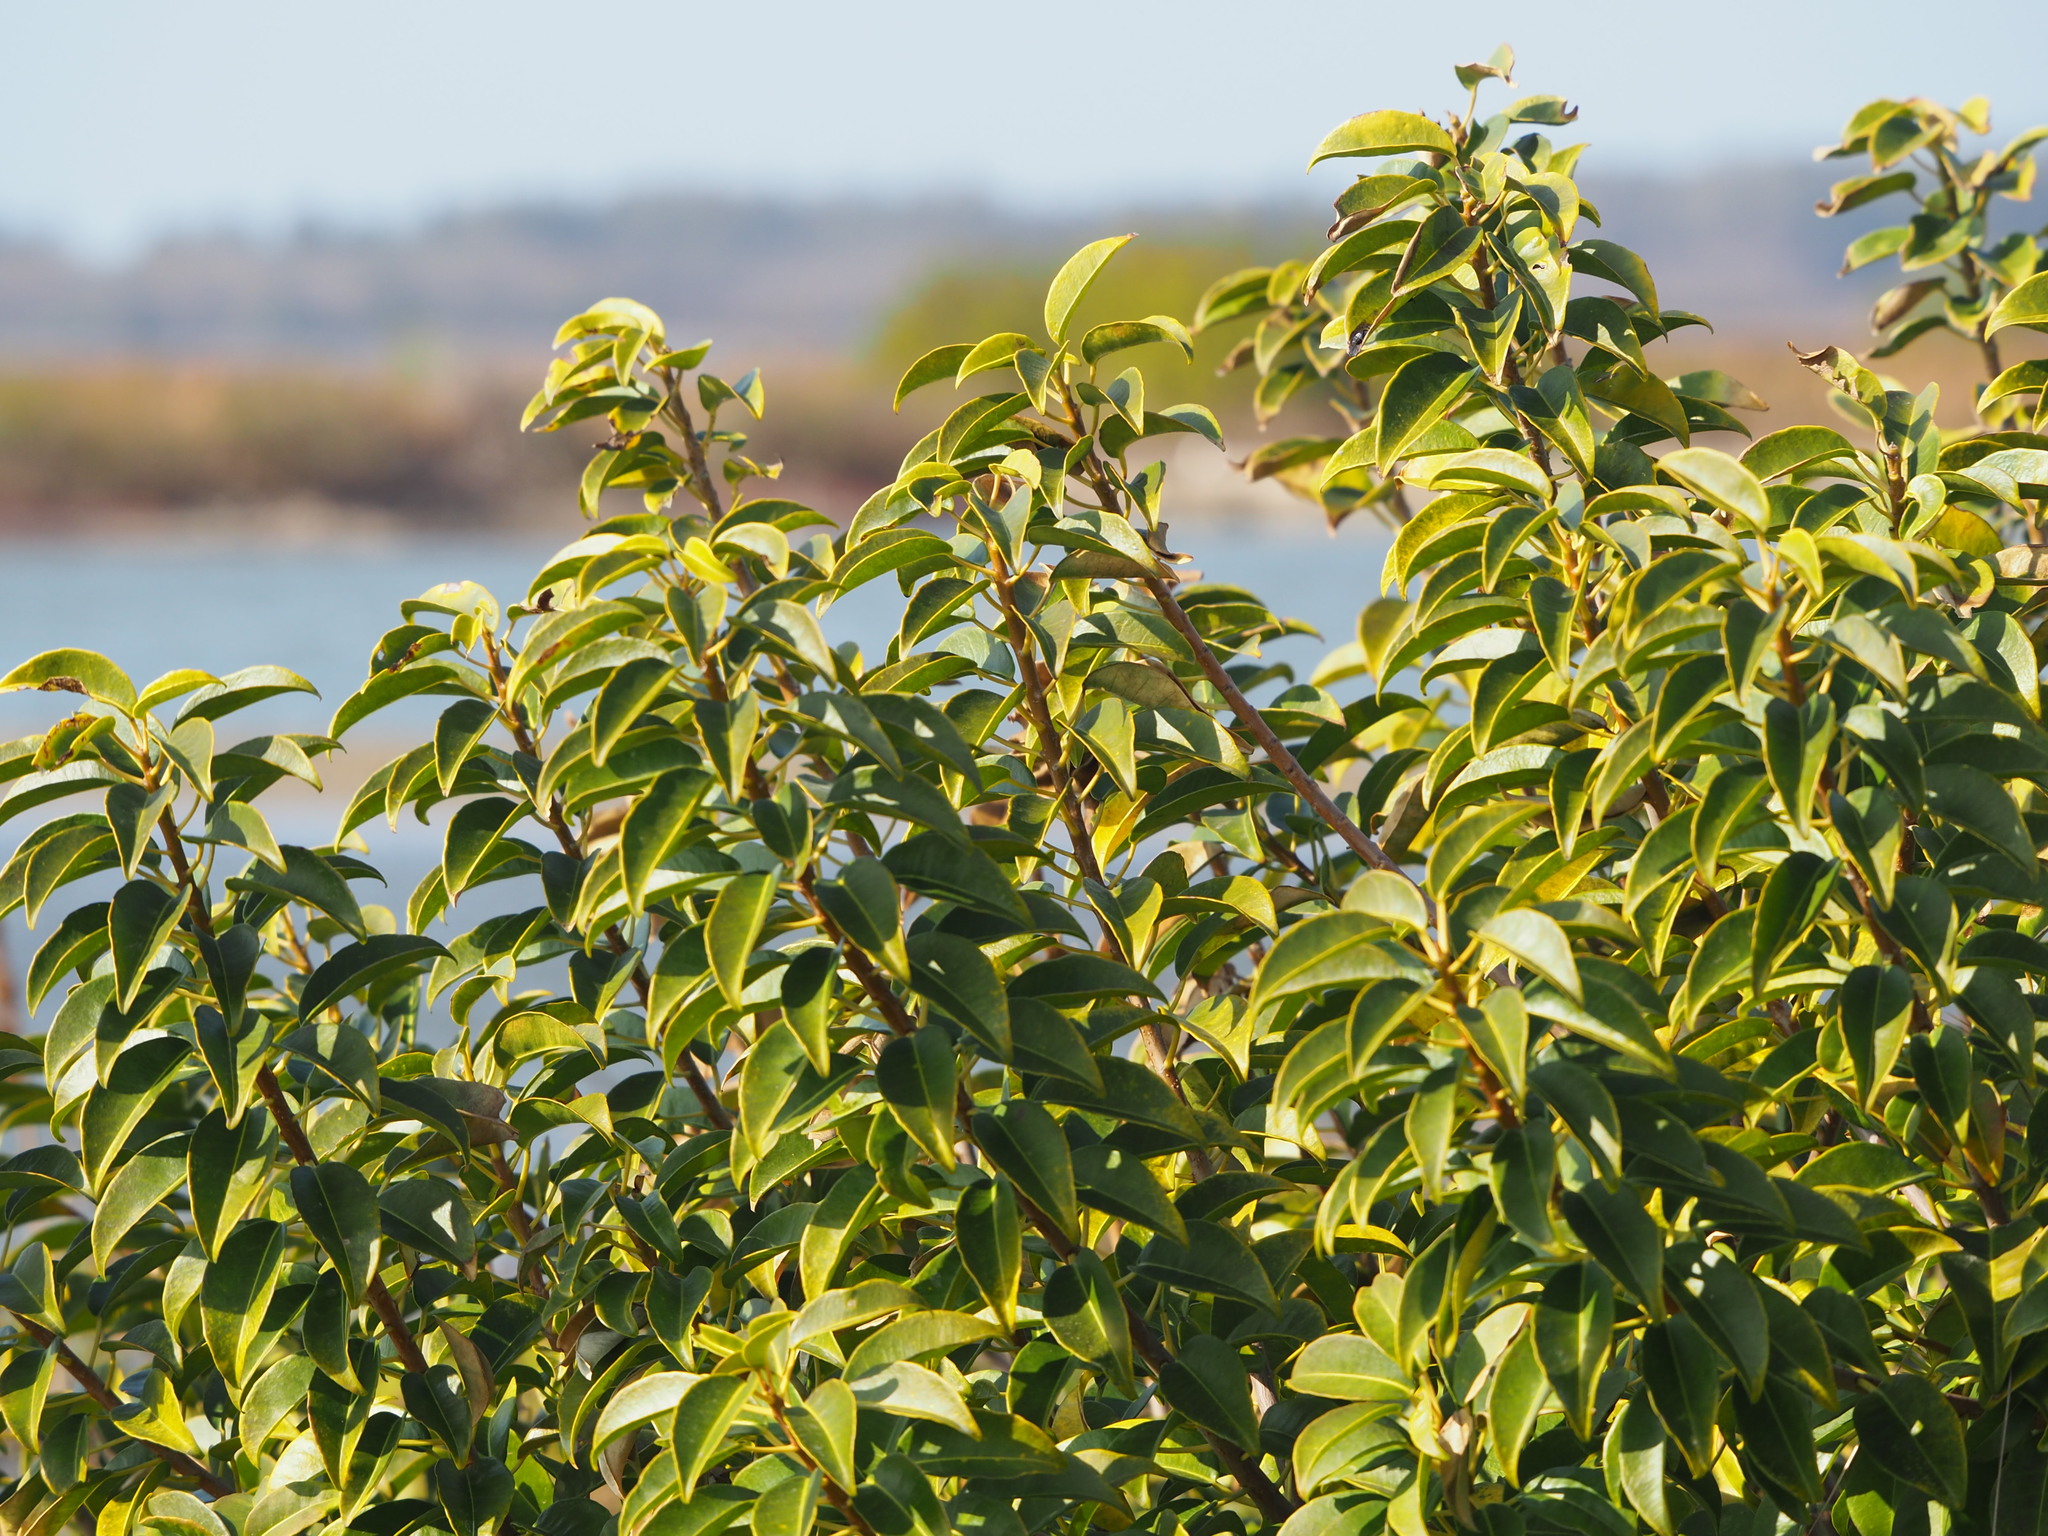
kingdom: Plantae
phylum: Tracheophyta
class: Magnoliopsida
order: Malpighiales
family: Euphorbiaceae
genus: Excoecaria
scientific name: Excoecaria agallocha
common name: River poisontree
